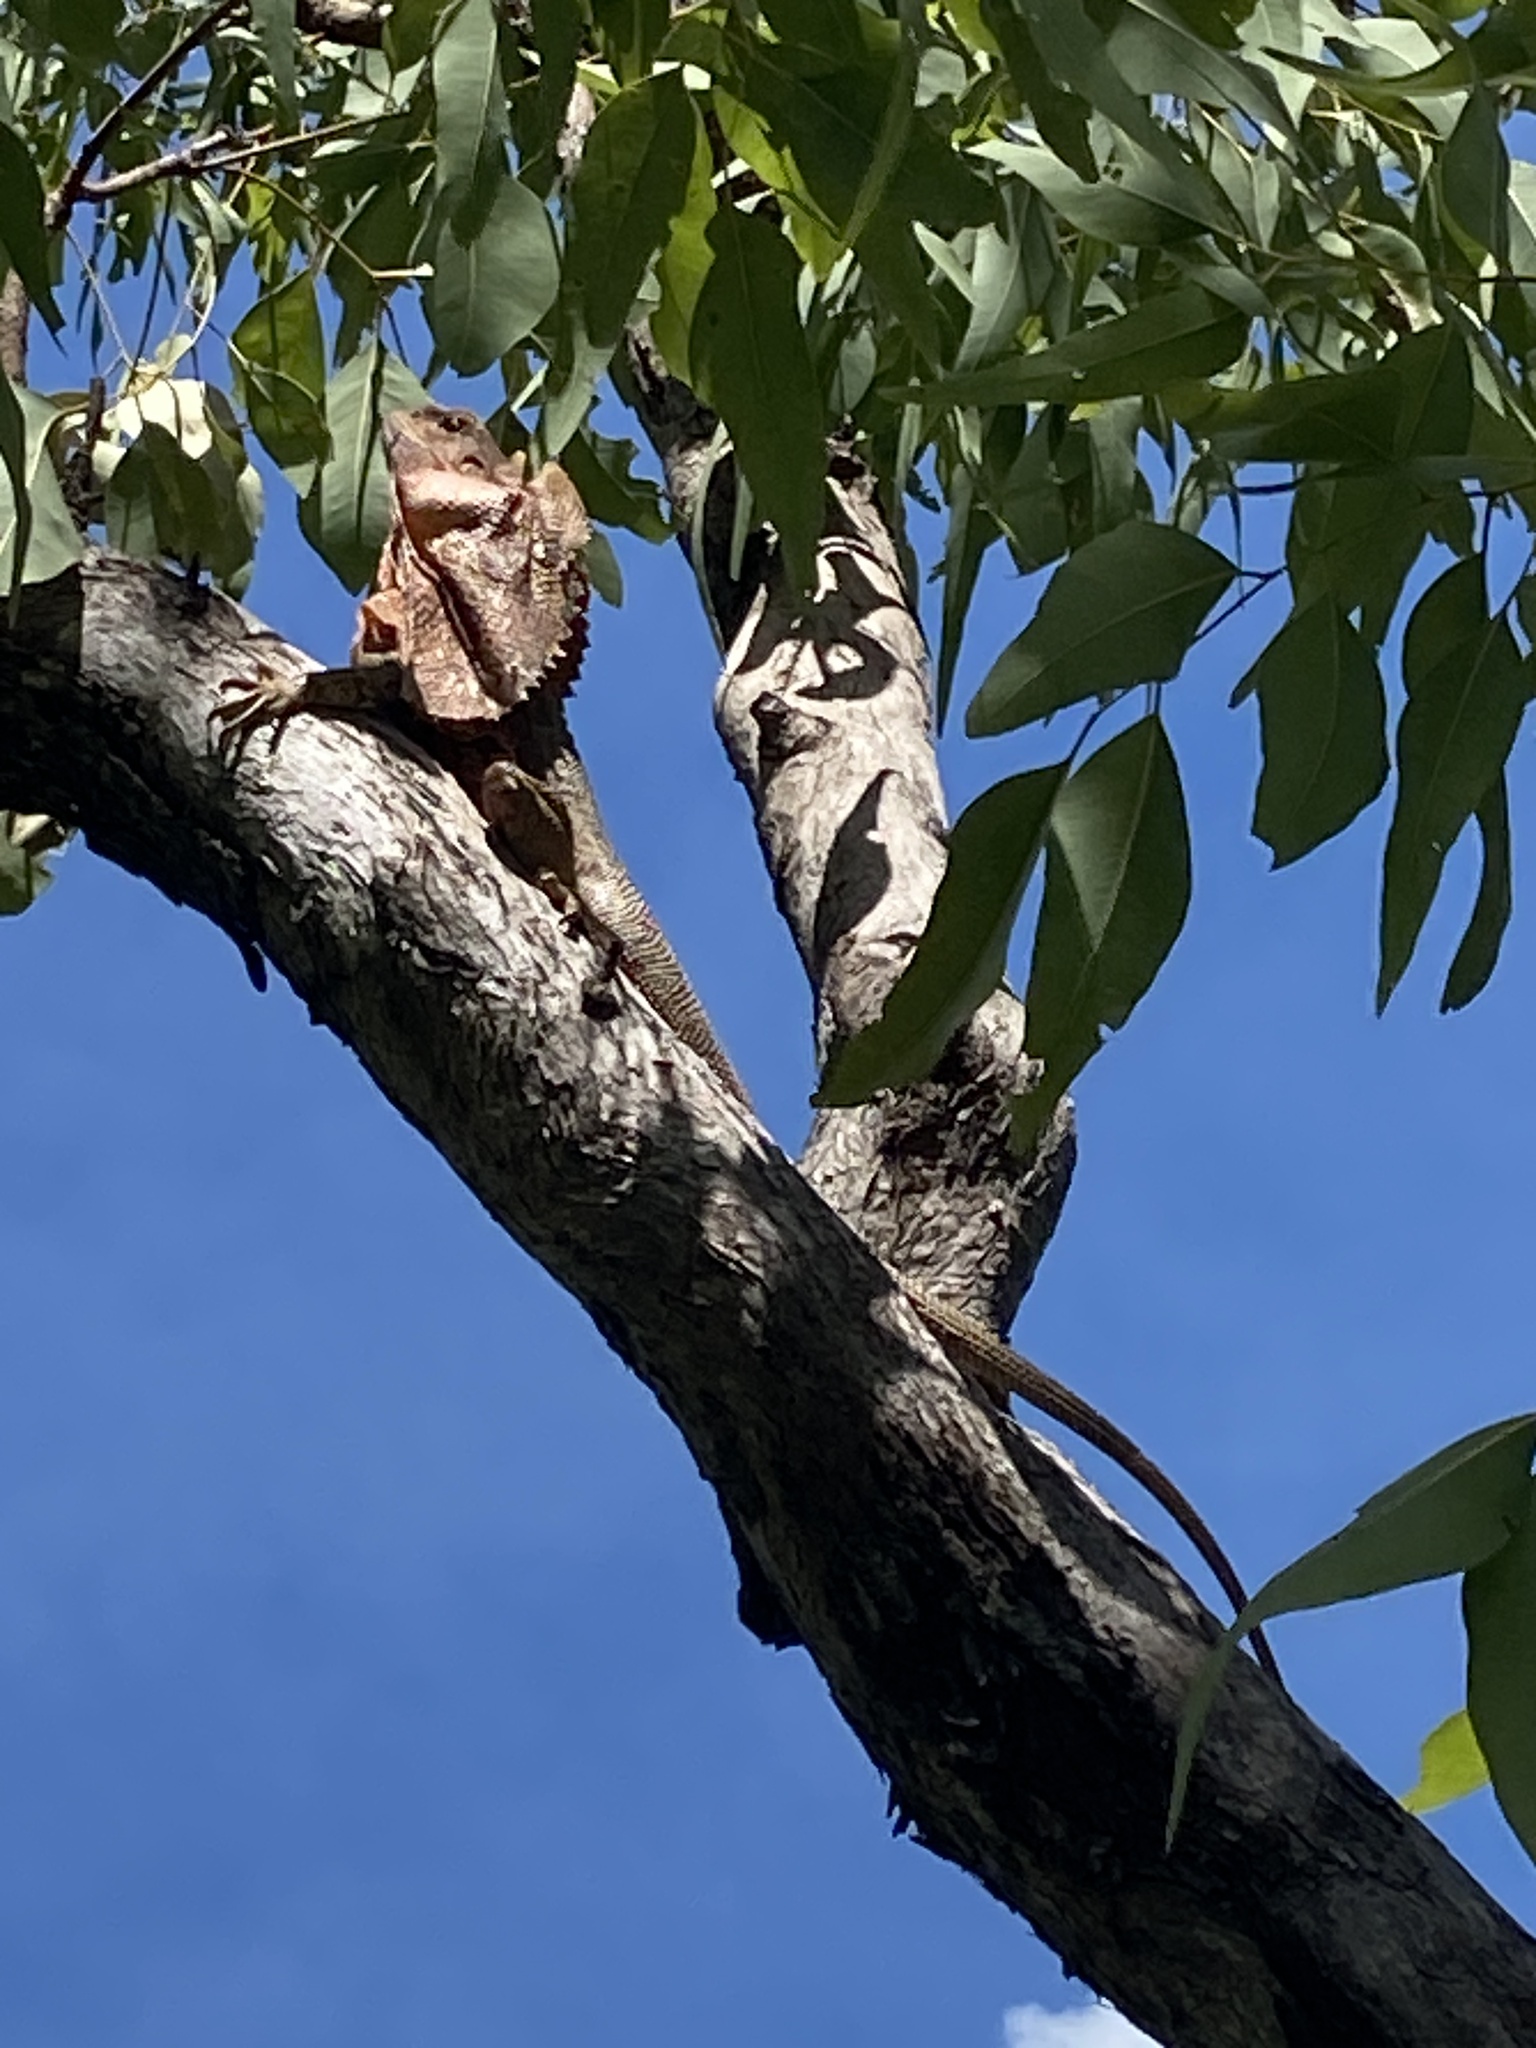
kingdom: Animalia
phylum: Chordata
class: Squamata
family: Agamidae
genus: Chlamydosaurus
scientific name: Chlamydosaurus kingii
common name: Frilled lizard
